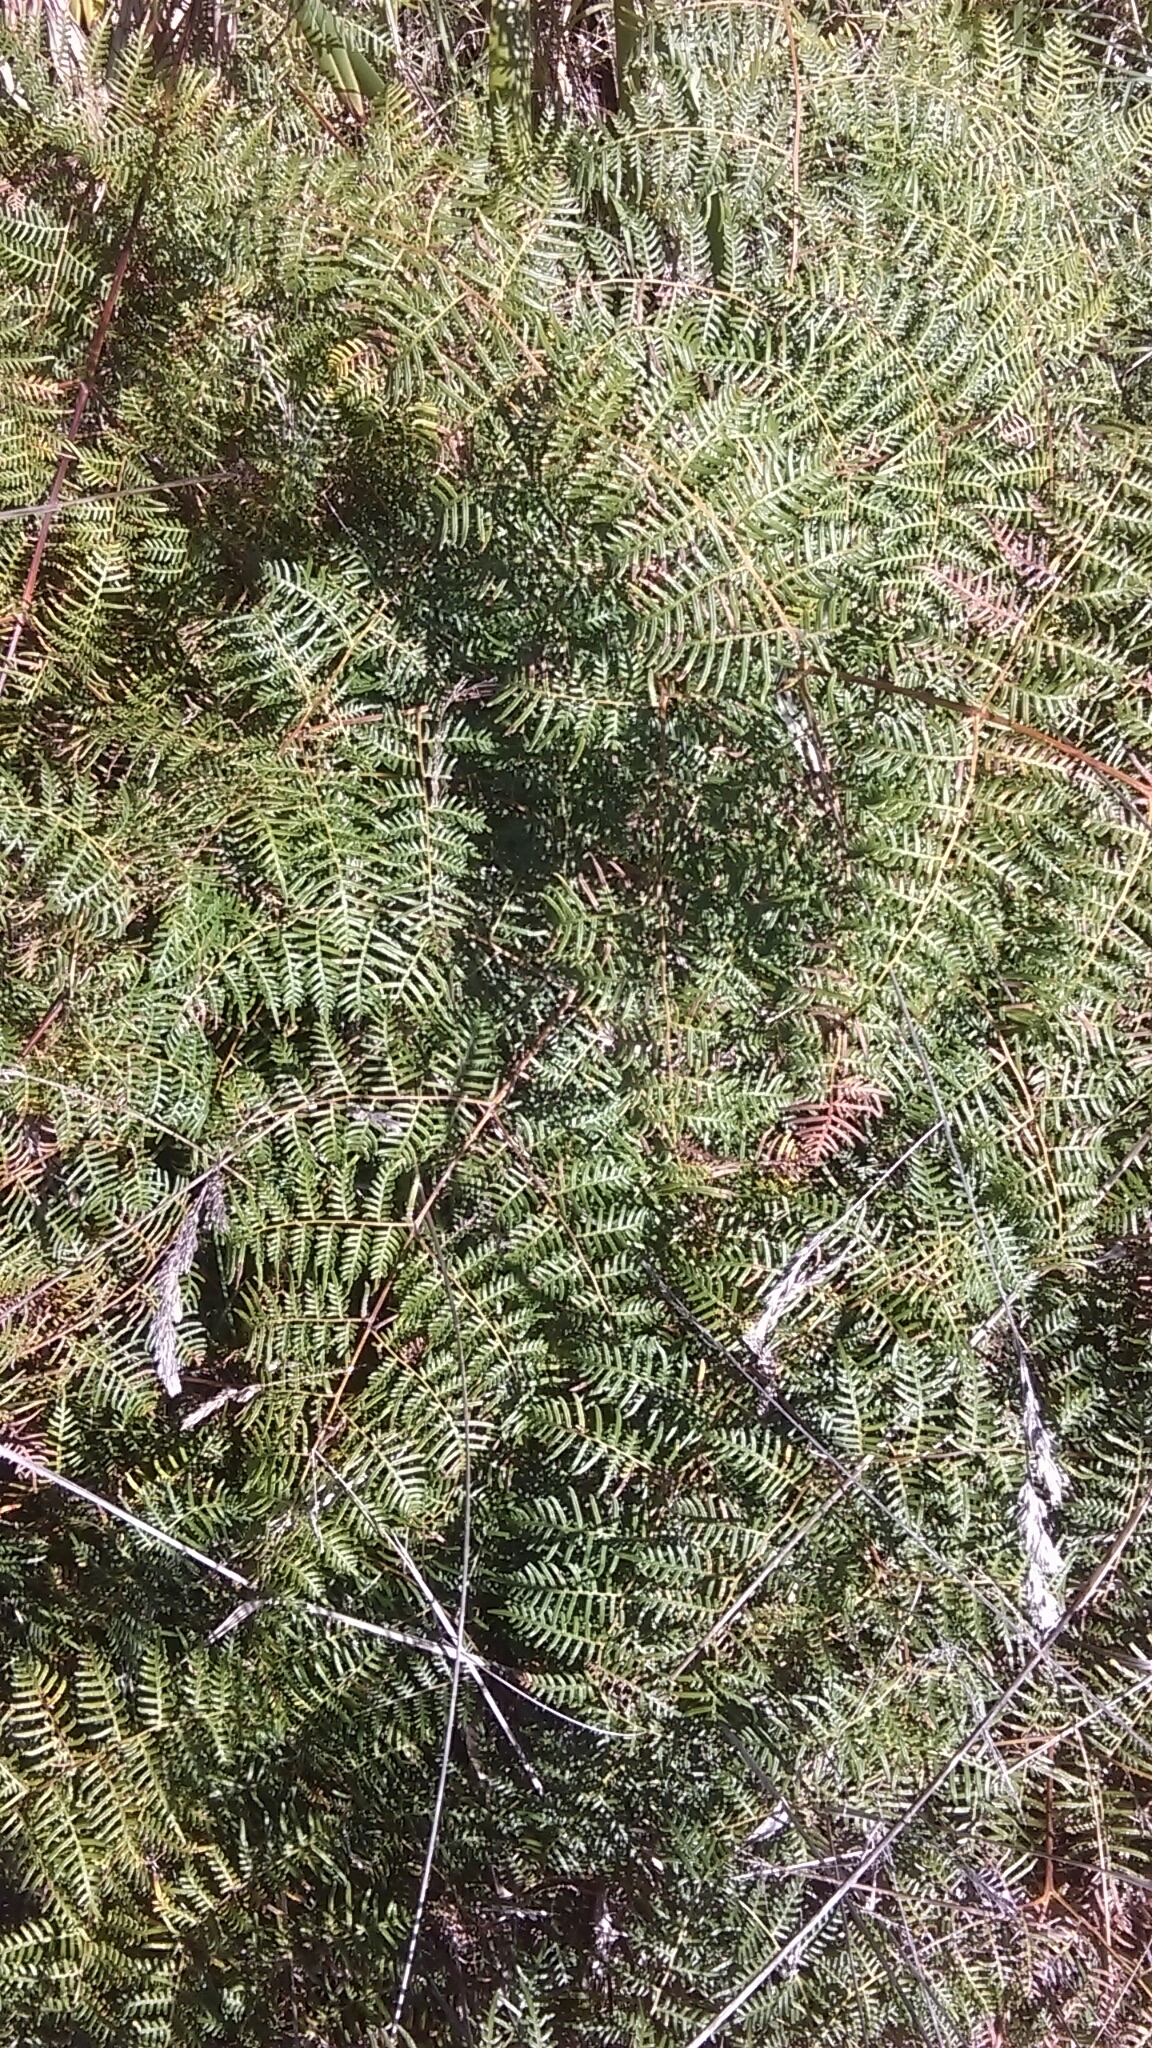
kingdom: Plantae
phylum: Tracheophyta
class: Polypodiopsida
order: Polypodiales
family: Dennstaedtiaceae
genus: Pteridium
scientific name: Pteridium esculentum
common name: Bracken fern
